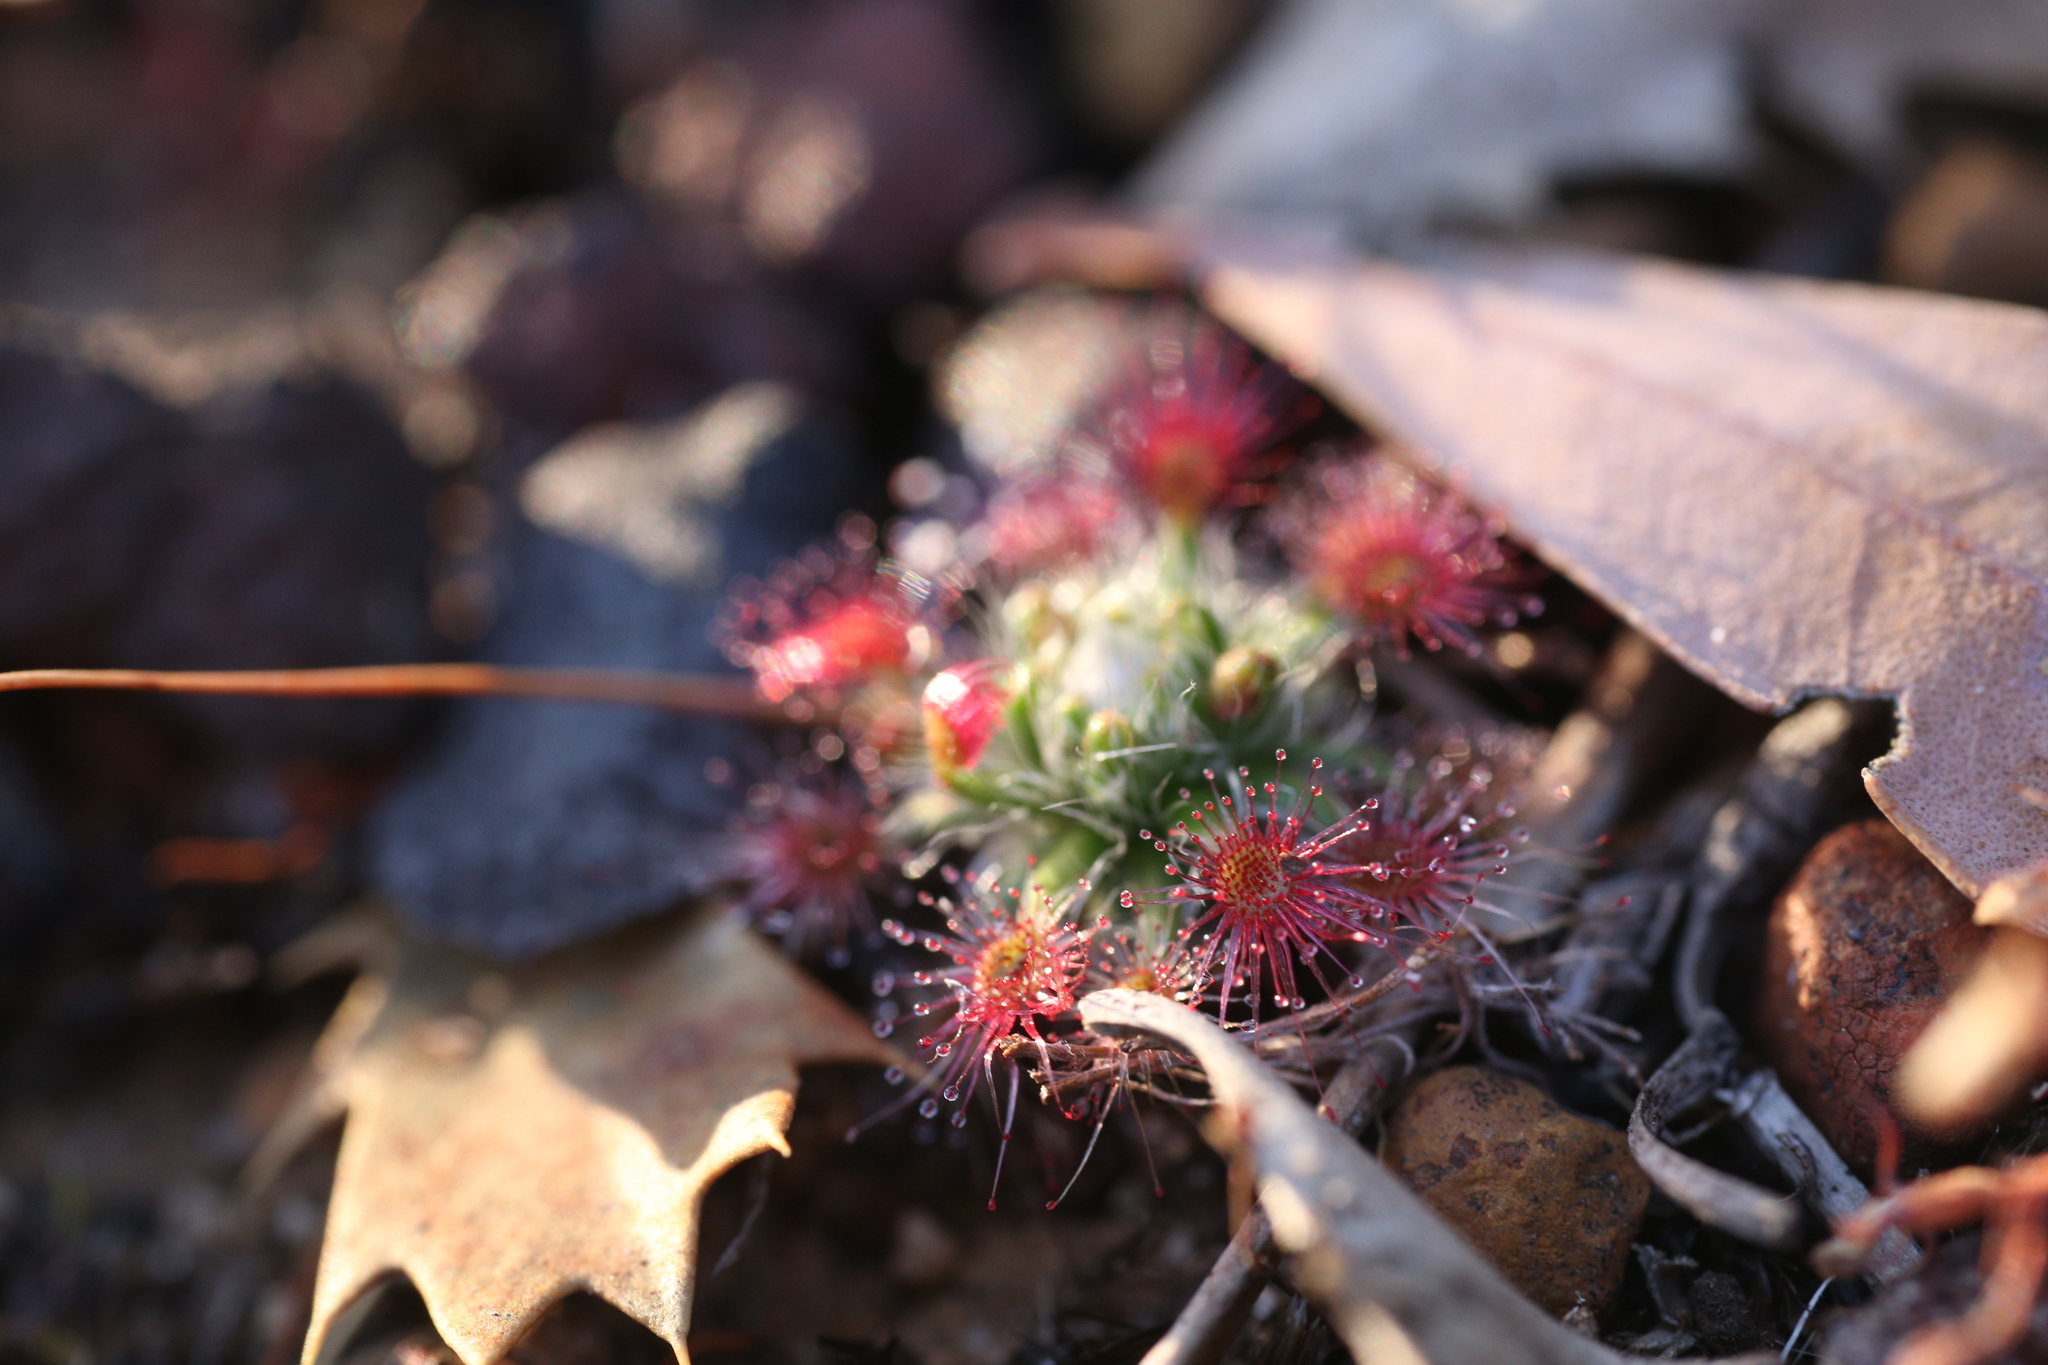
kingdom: Plantae
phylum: Tracheophyta
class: Magnoliopsida
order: Caryophyllales
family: Droseraceae
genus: Drosera
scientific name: Drosera hyperostigma
